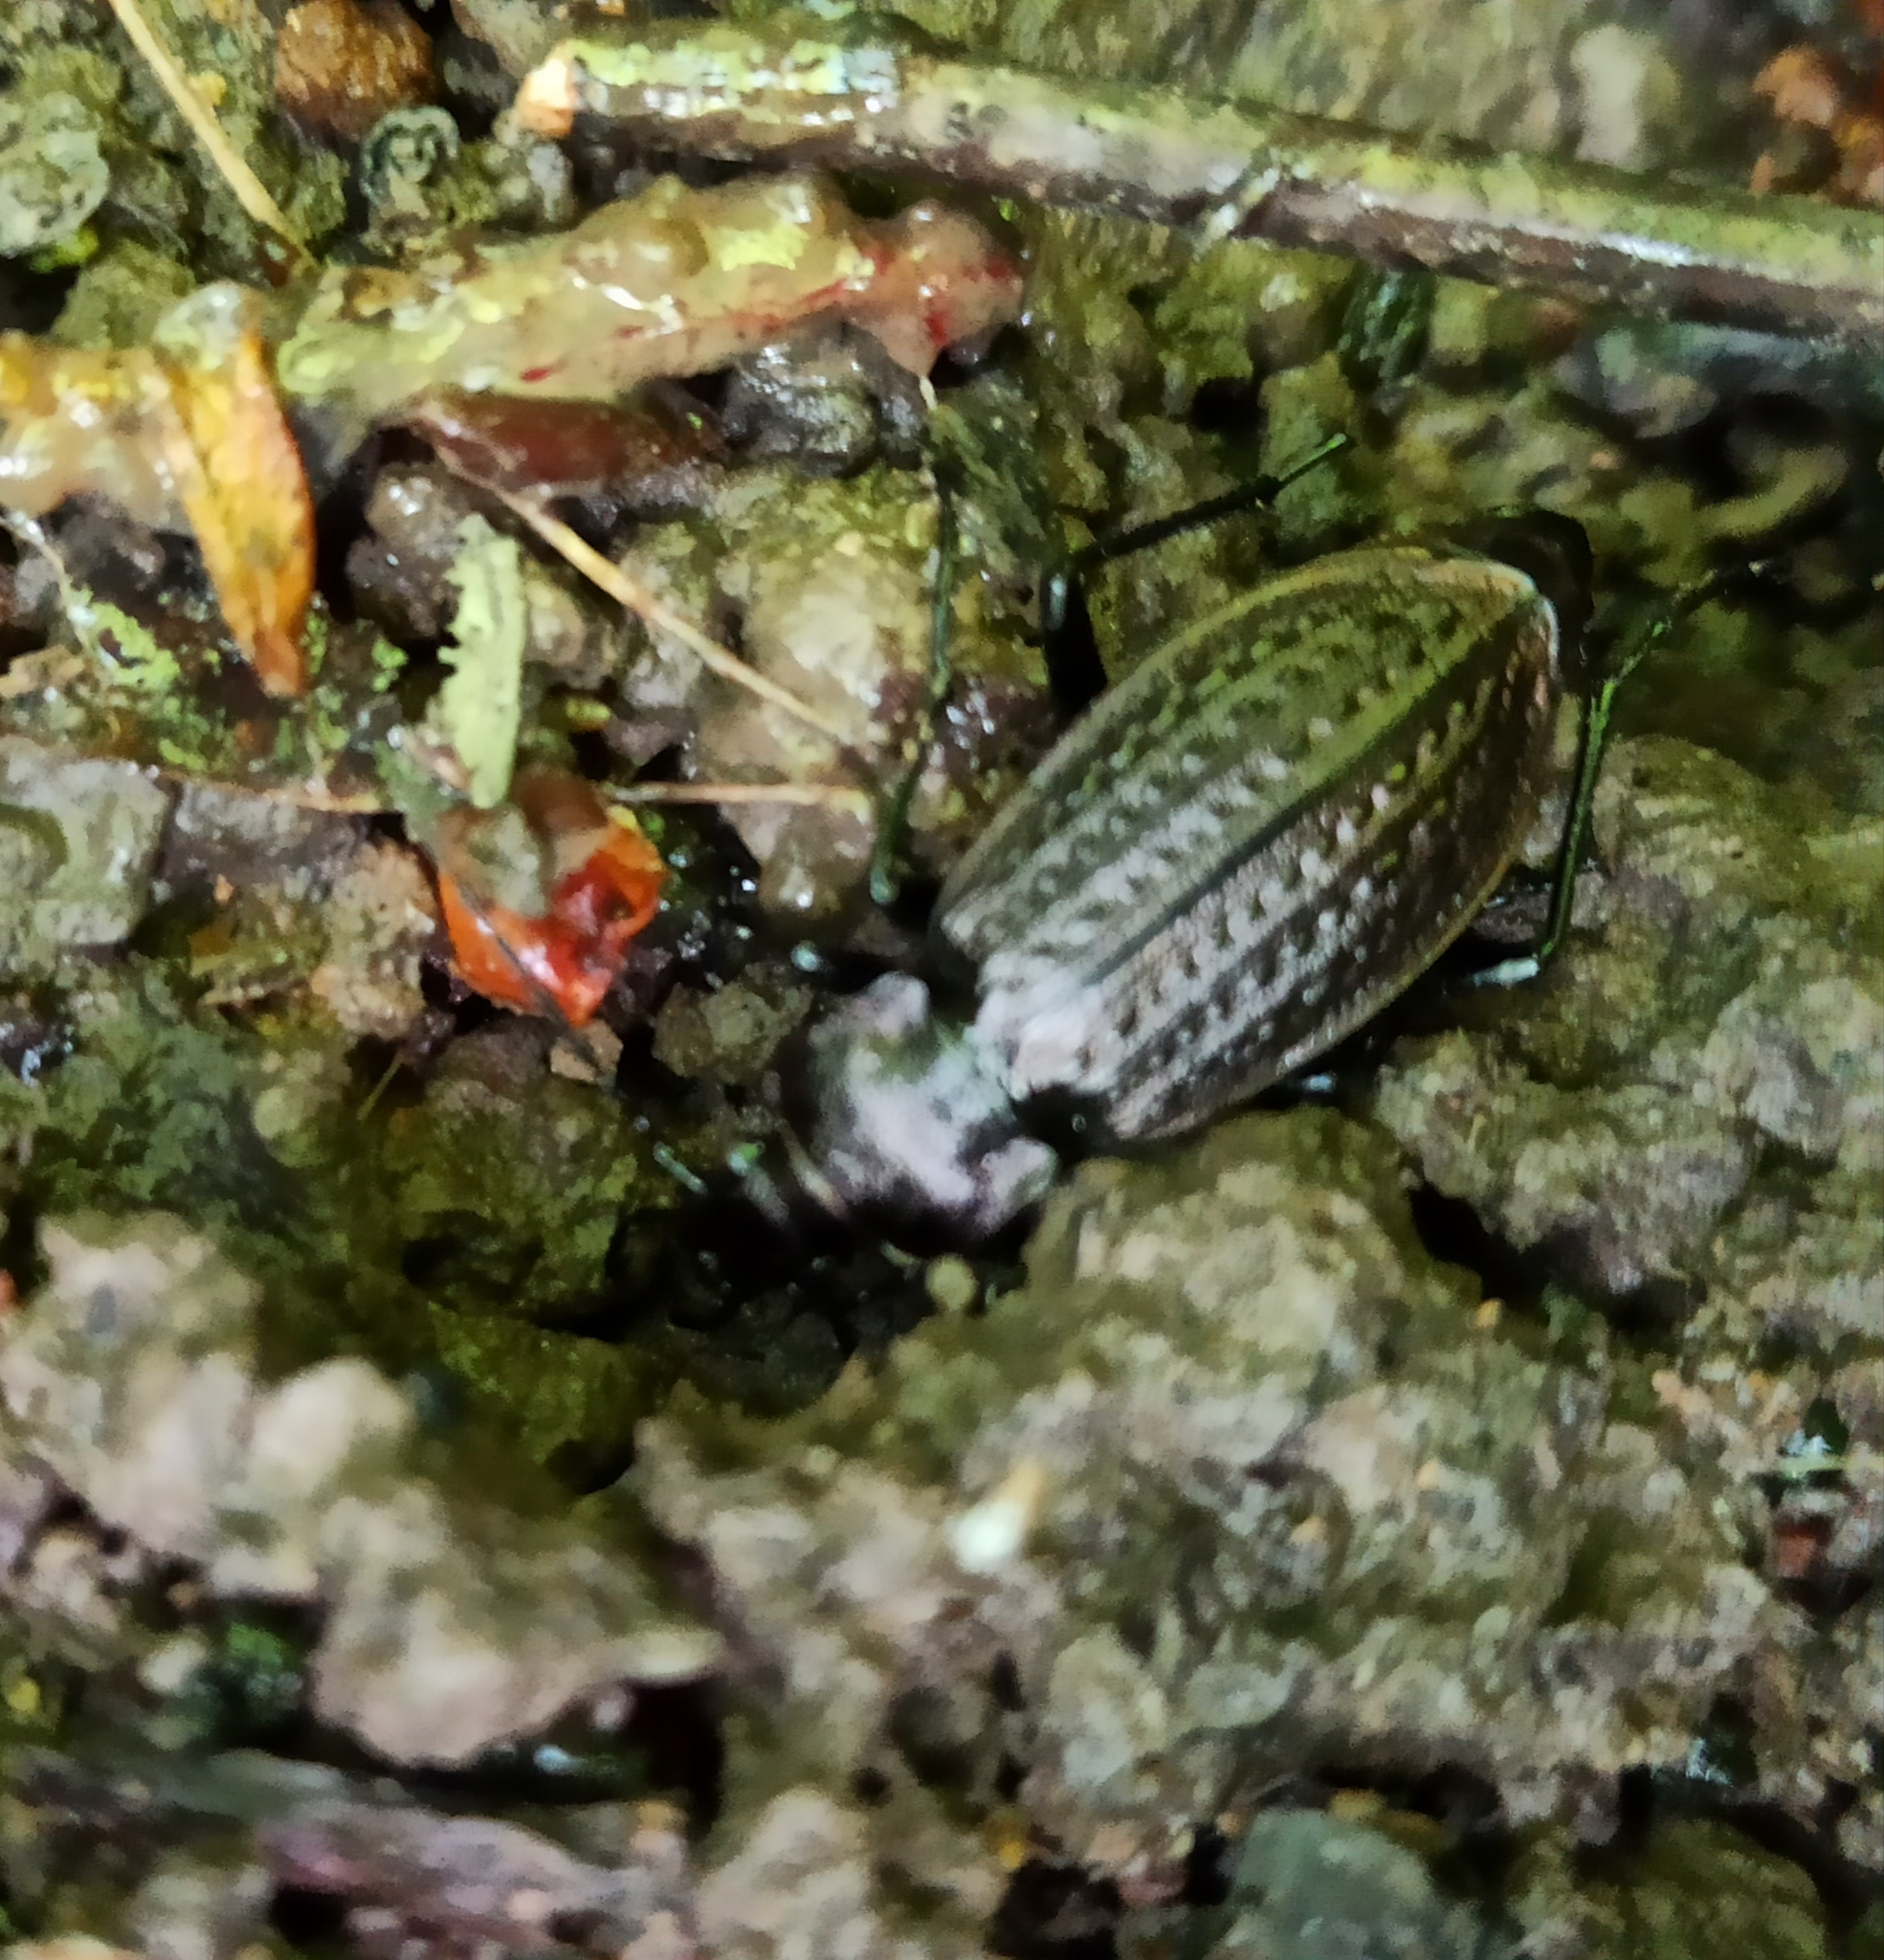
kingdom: Animalia
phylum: Arthropoda
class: Insecta
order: Coleoptera
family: Carabidae
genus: Carabus
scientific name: Carabus granulatus
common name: Granulate ground beetle
